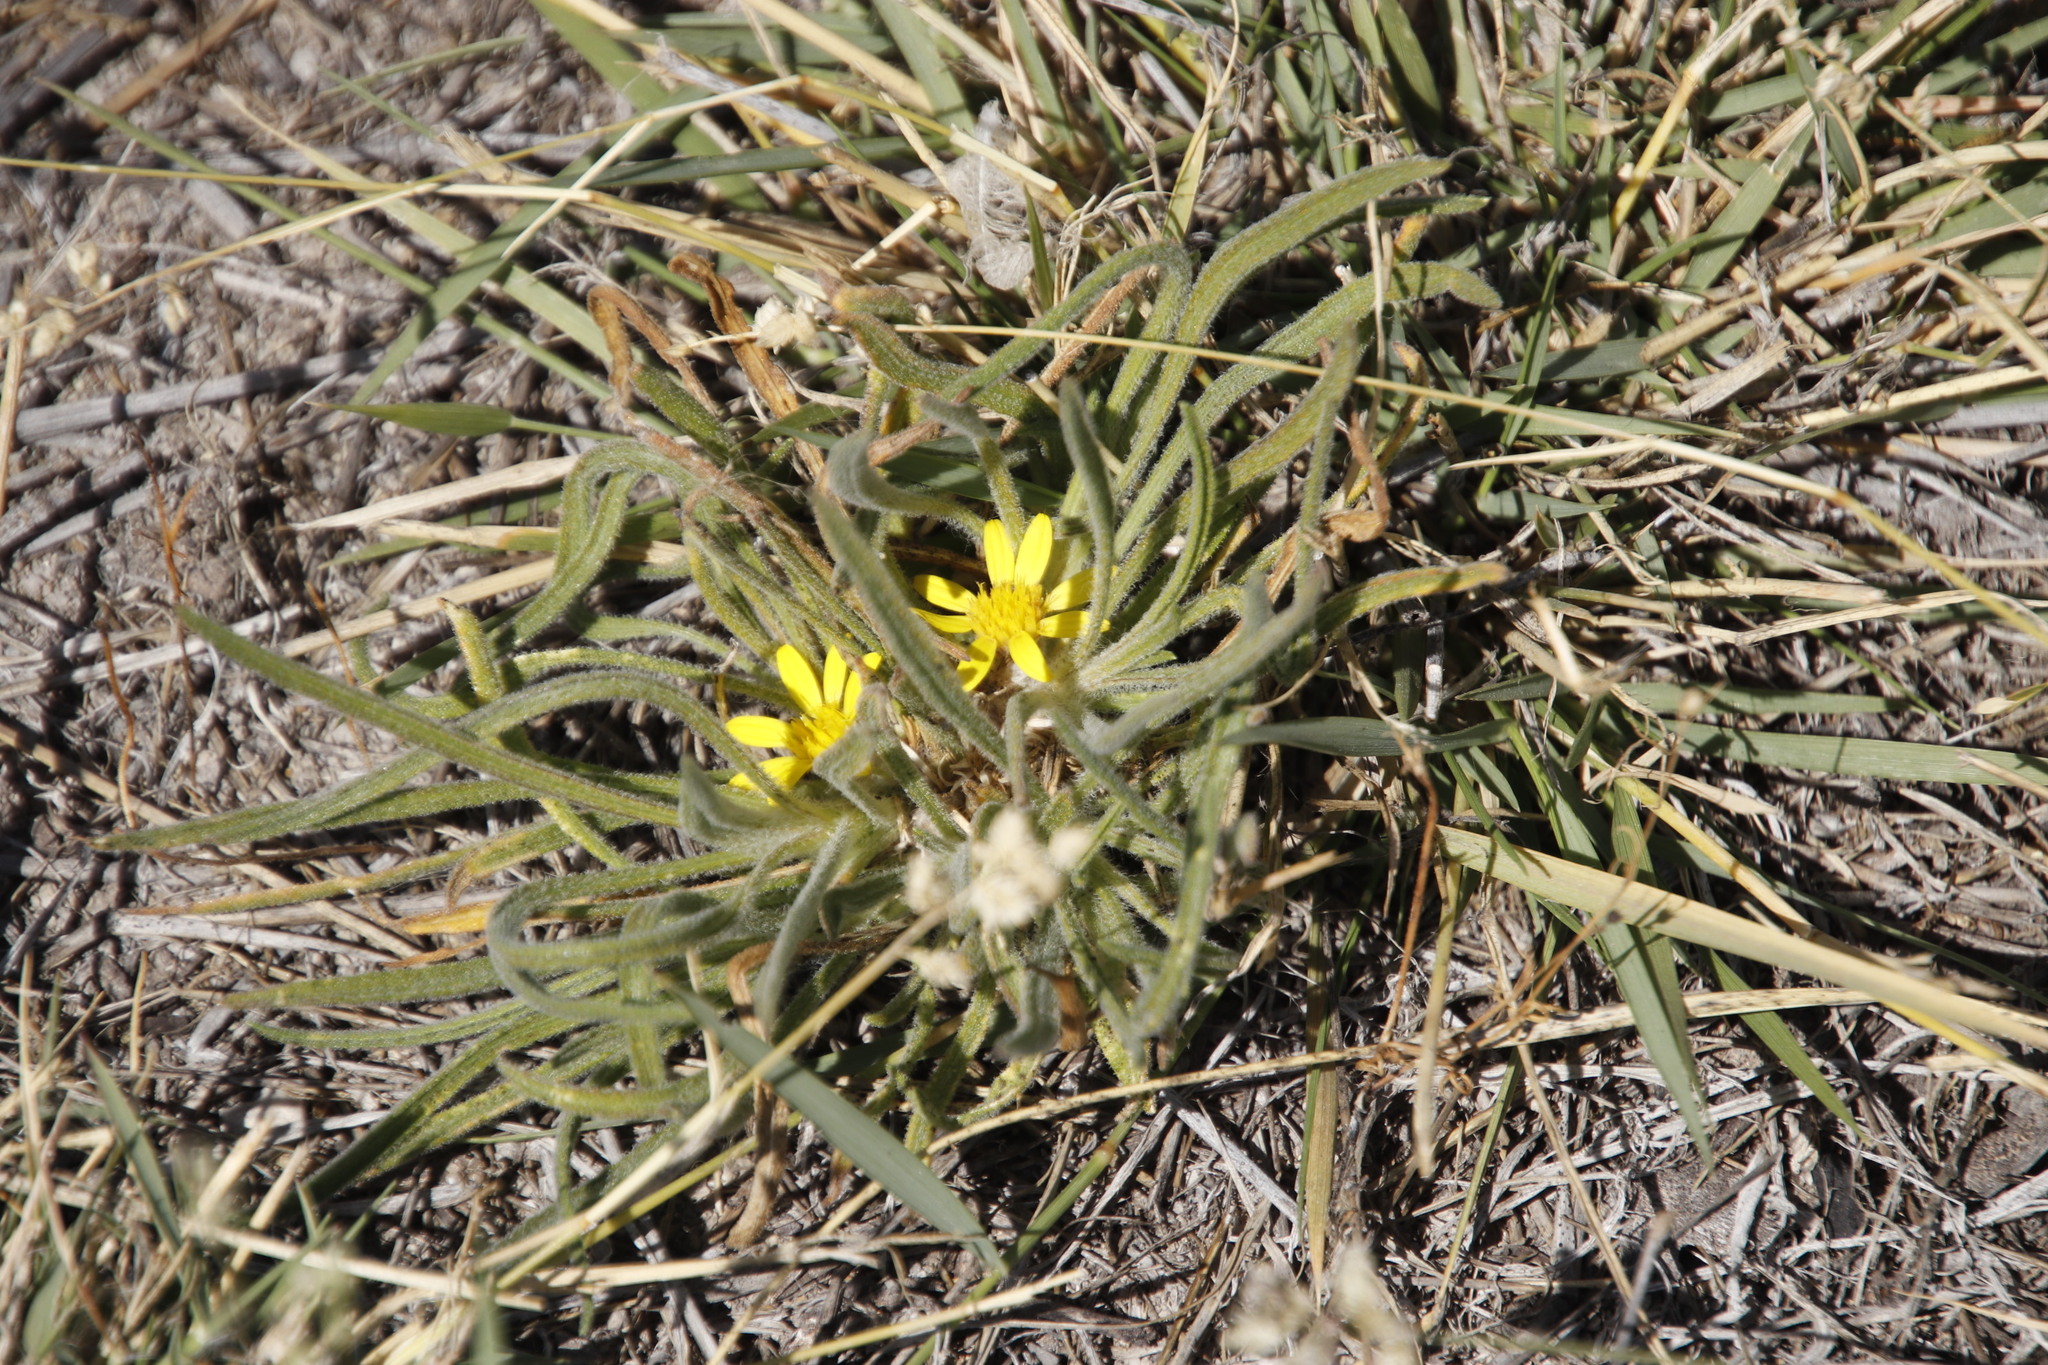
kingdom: Plantae
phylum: Tracheophyta
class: Magnoliopsida
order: Asterales
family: Asteraceae
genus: Geigeria
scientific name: Geigeria ornativa
